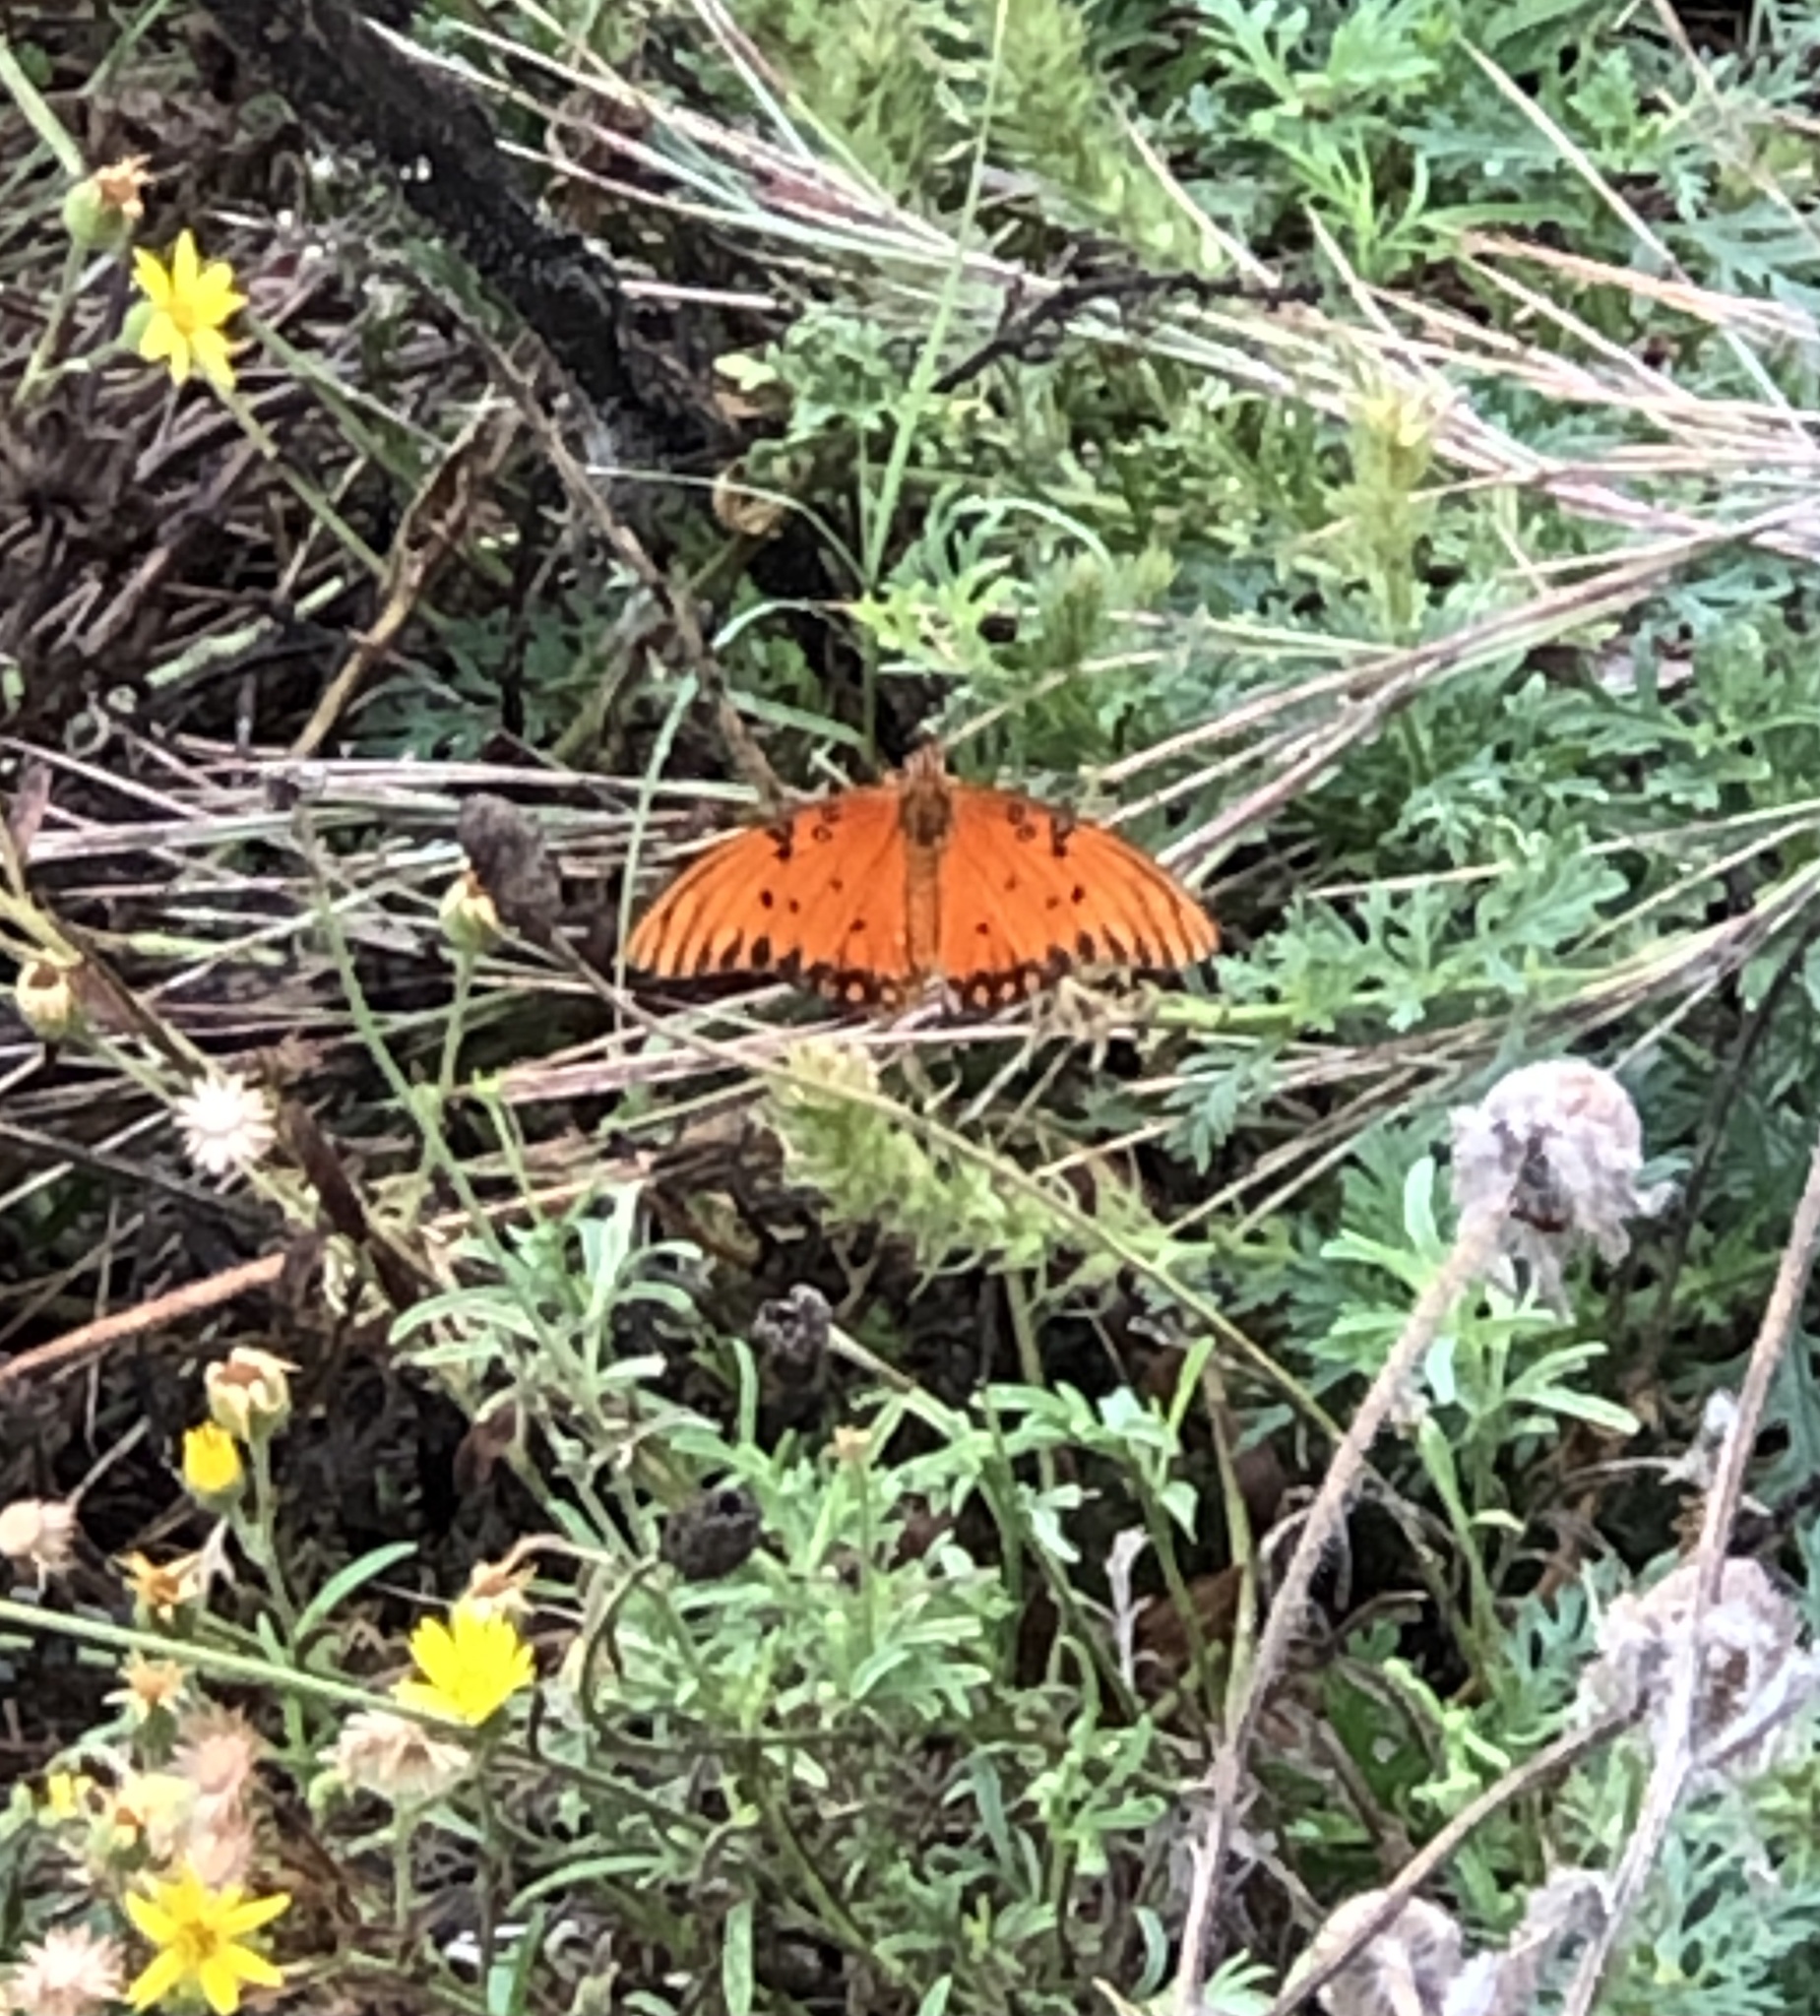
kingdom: Animalia
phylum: Arthropoda
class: Insecta
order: Lepidoptera
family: Nymphalidae
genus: Dione
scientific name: Dione vanillae
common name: Gulf fritillary
